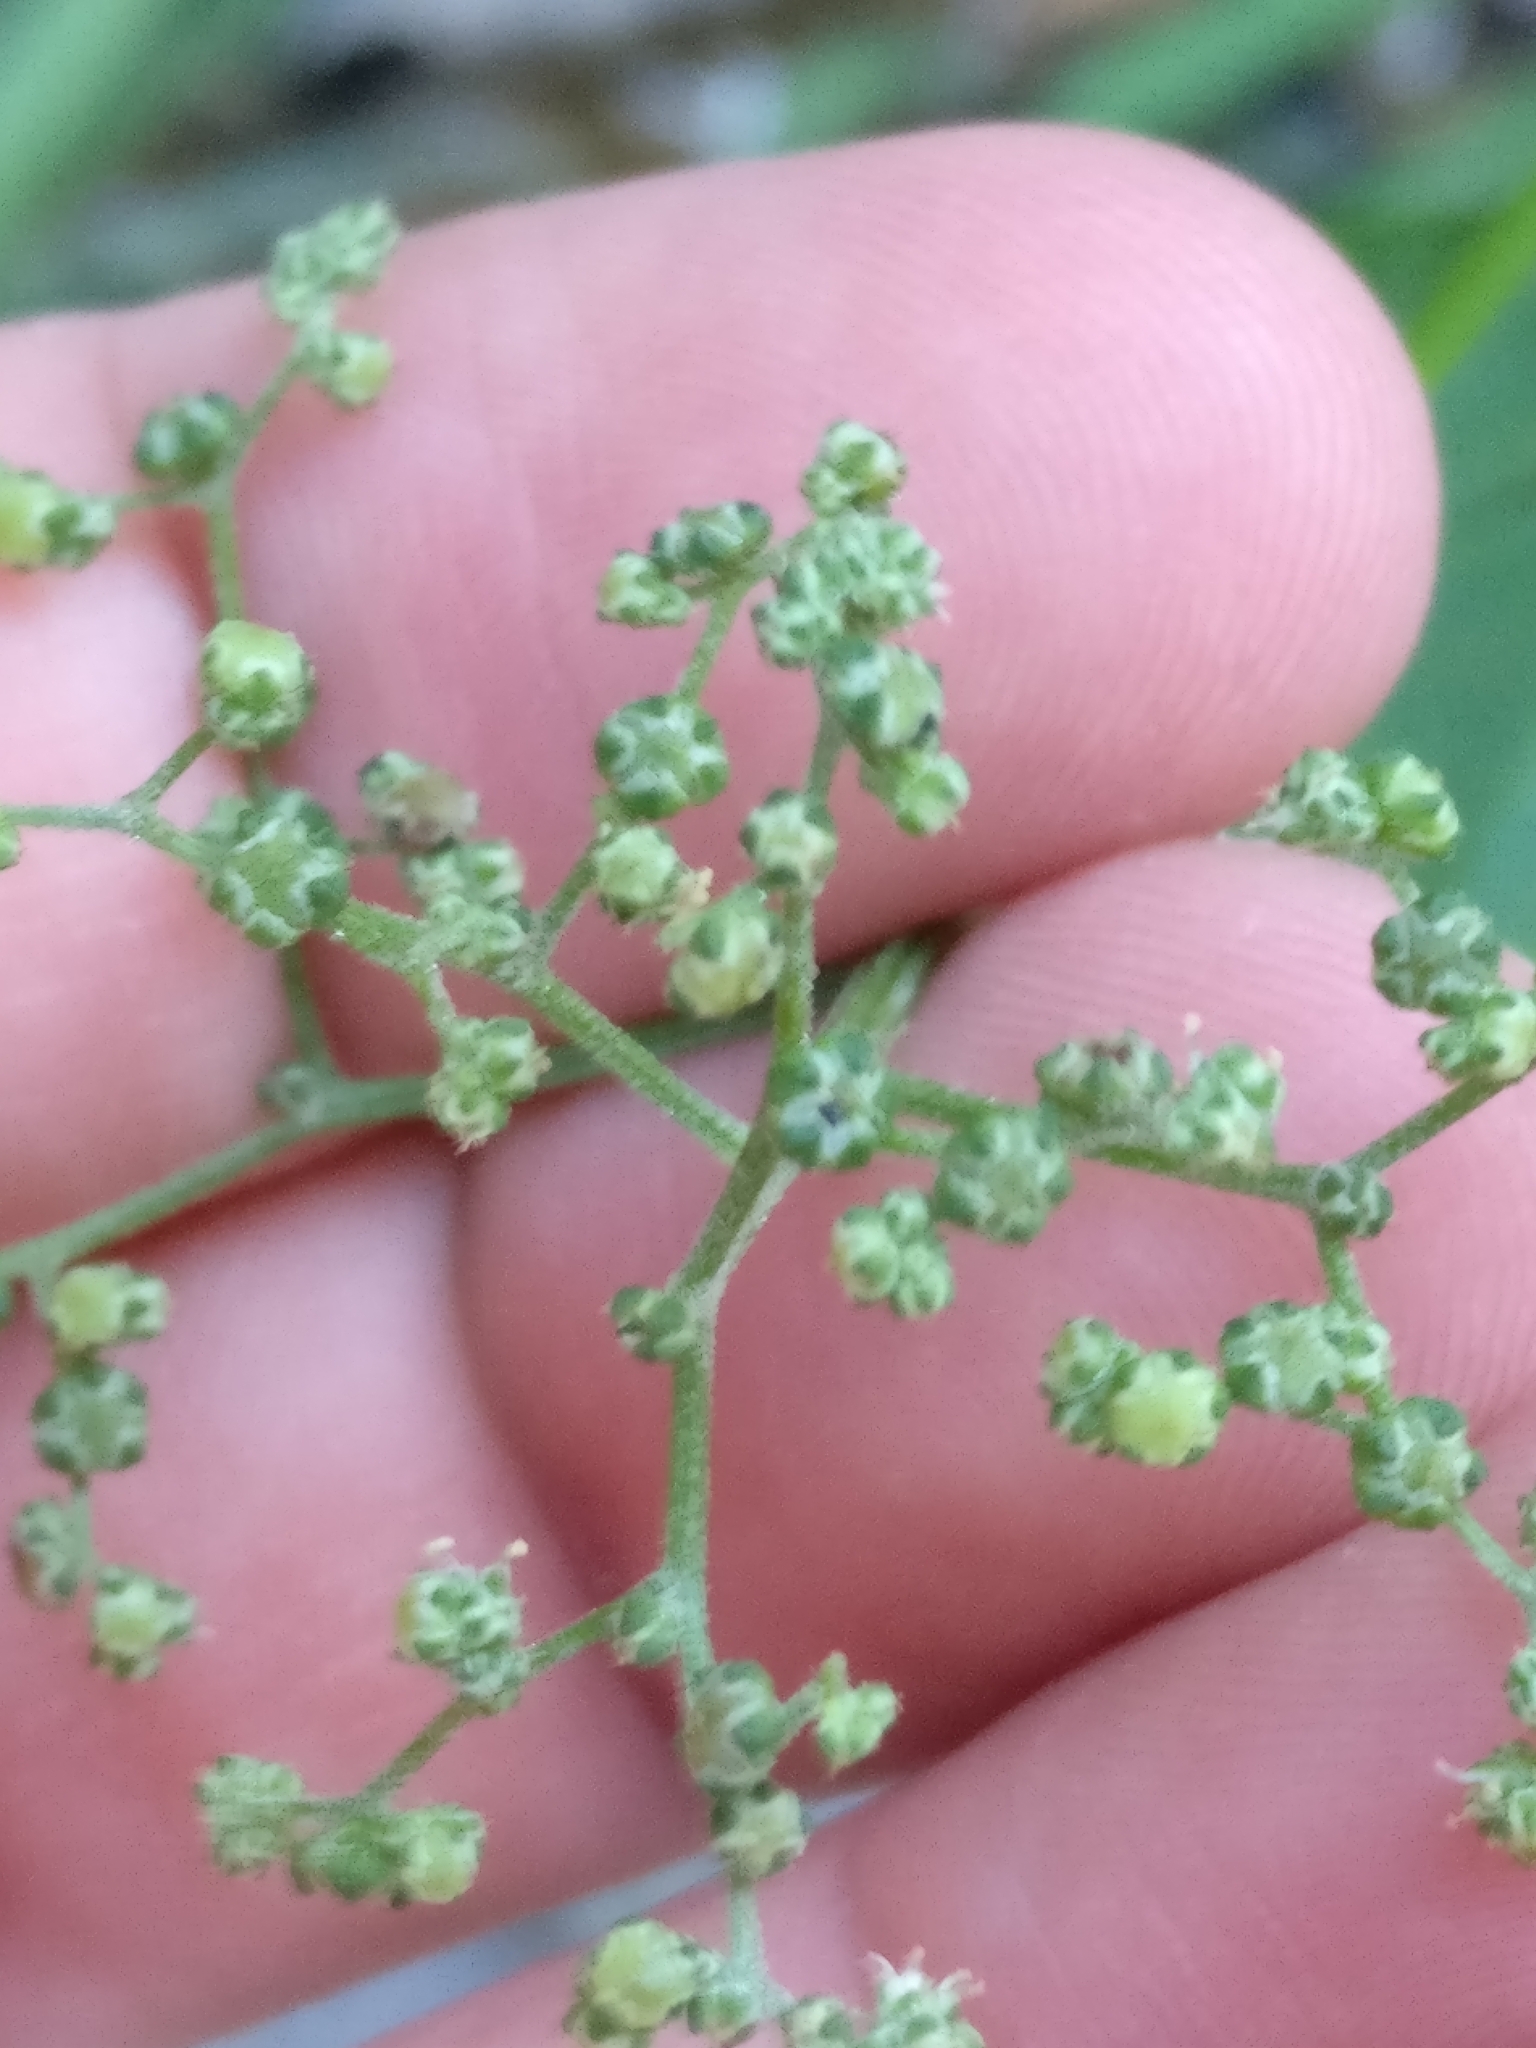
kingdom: Plantae
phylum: Tracheophyta
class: Magnoliopsida
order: Caryophyllales
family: Amaranthaceae
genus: Chenopodiastrum
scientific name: Chenopodiastrum hybridum
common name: Mapleleaf goosefoot
